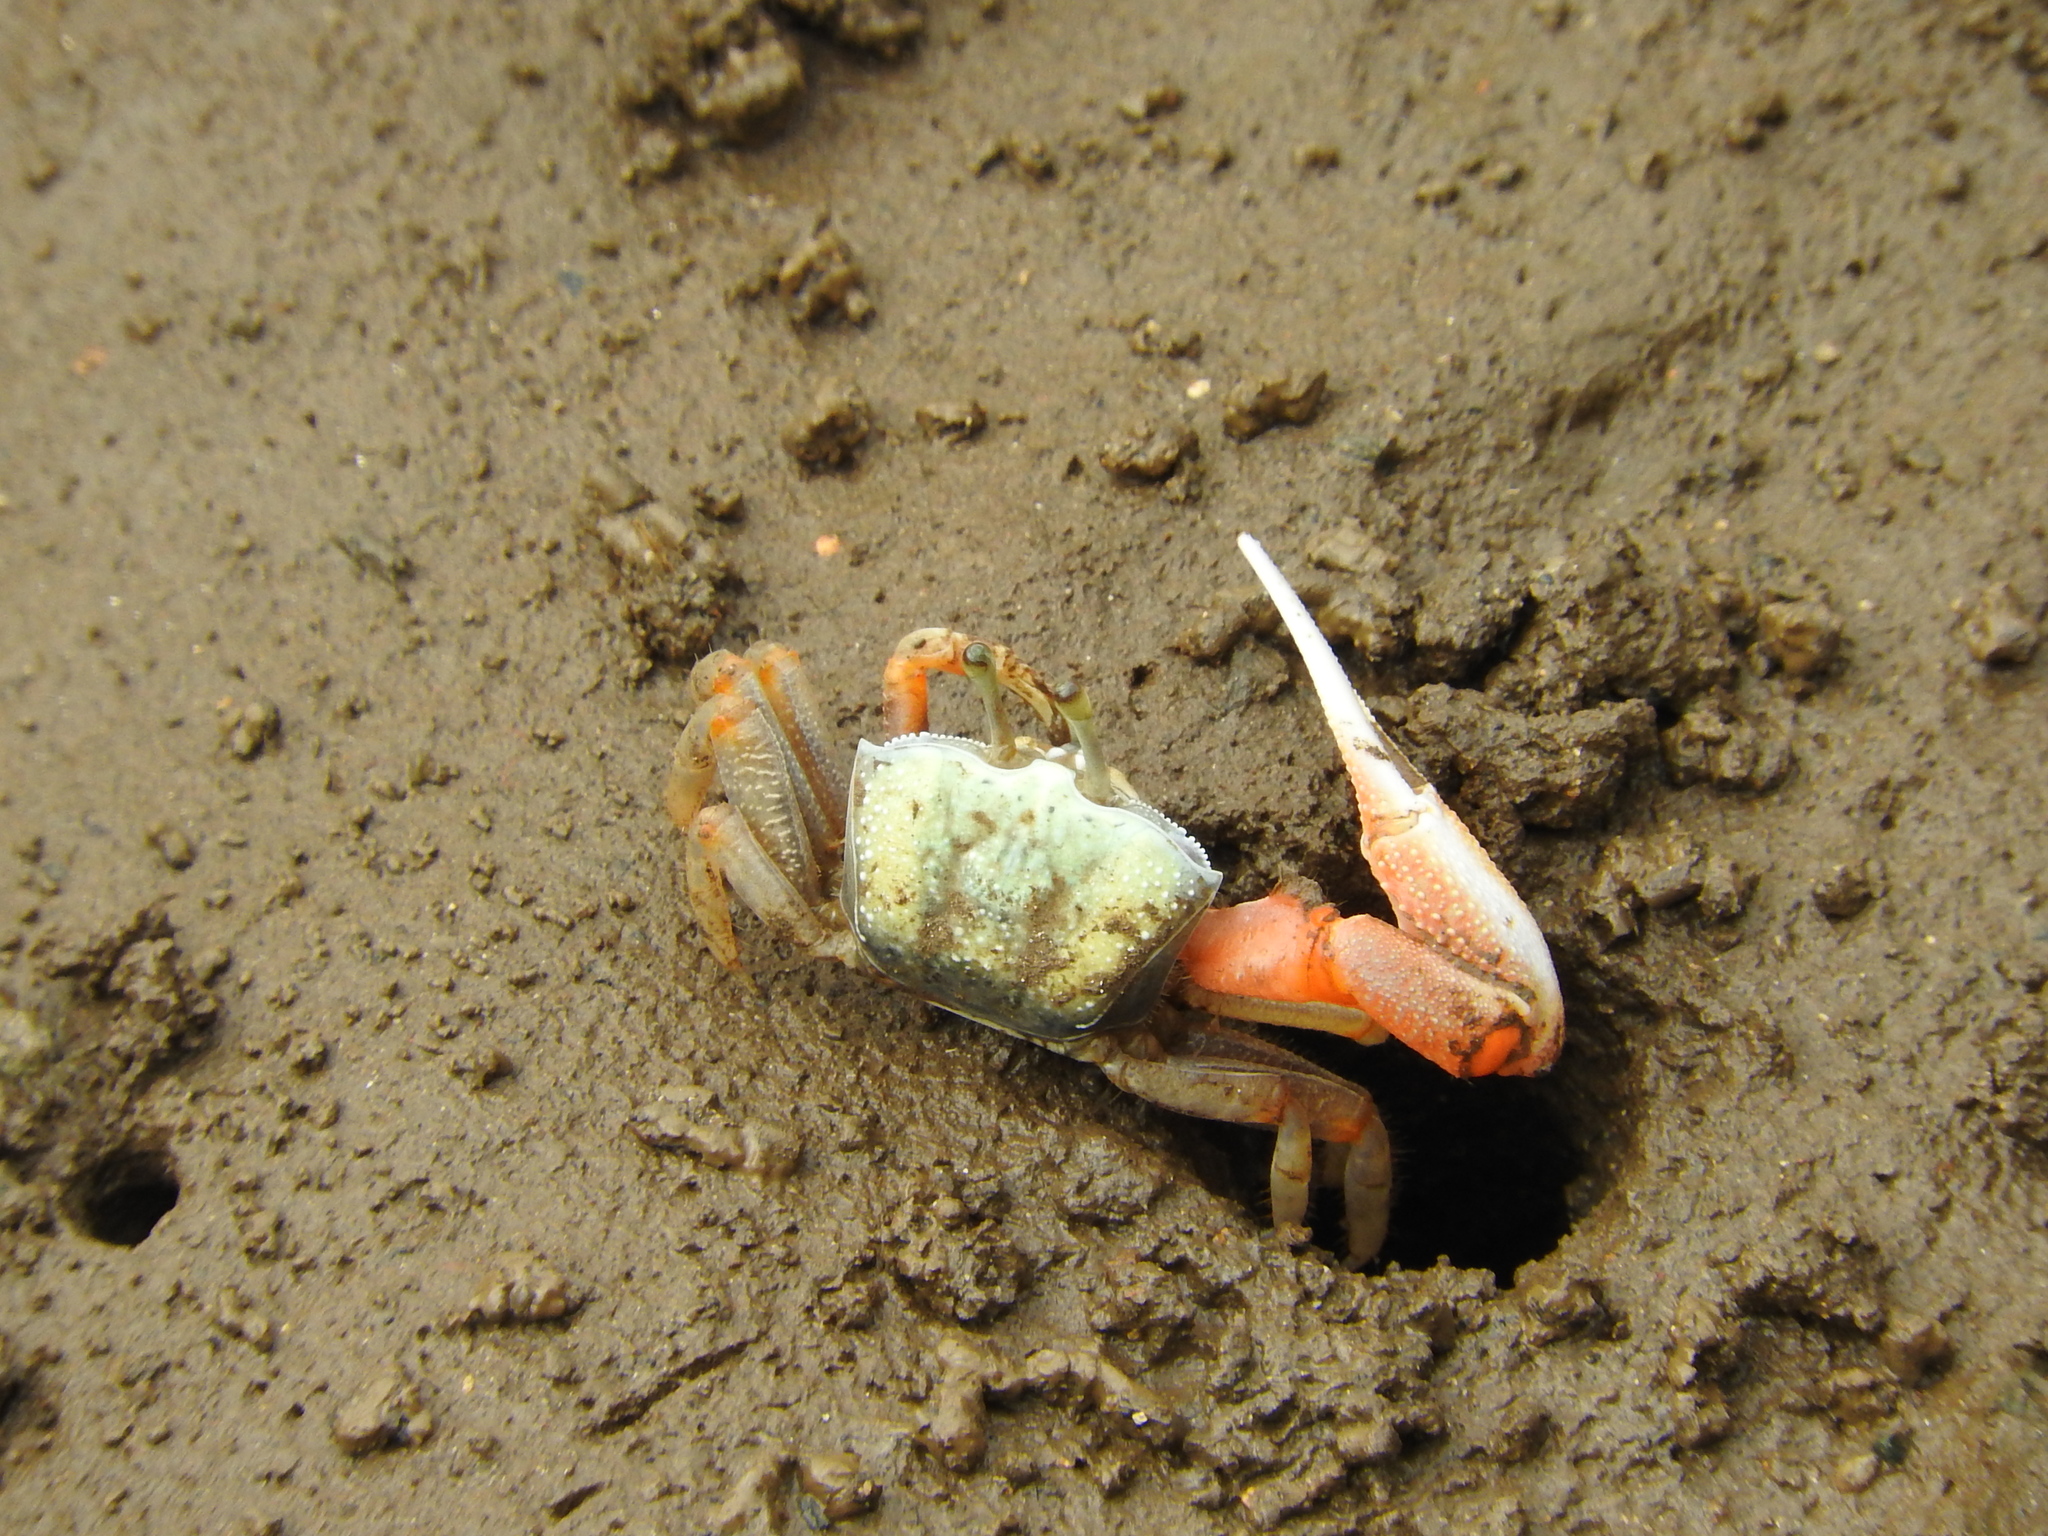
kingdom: Animalia
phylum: Arthropoda
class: Malacostraca
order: Decapoda
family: Ocypodidae
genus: Afruca
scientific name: Afruca tangeri
